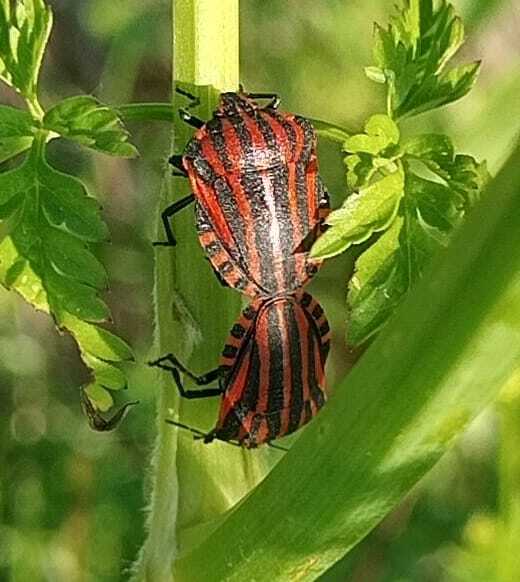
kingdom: Animalia
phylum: Arthropoda
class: Insecta
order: Hemiptera
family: Pentatomidae
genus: Graphosoma
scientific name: Graphosoma italicum
